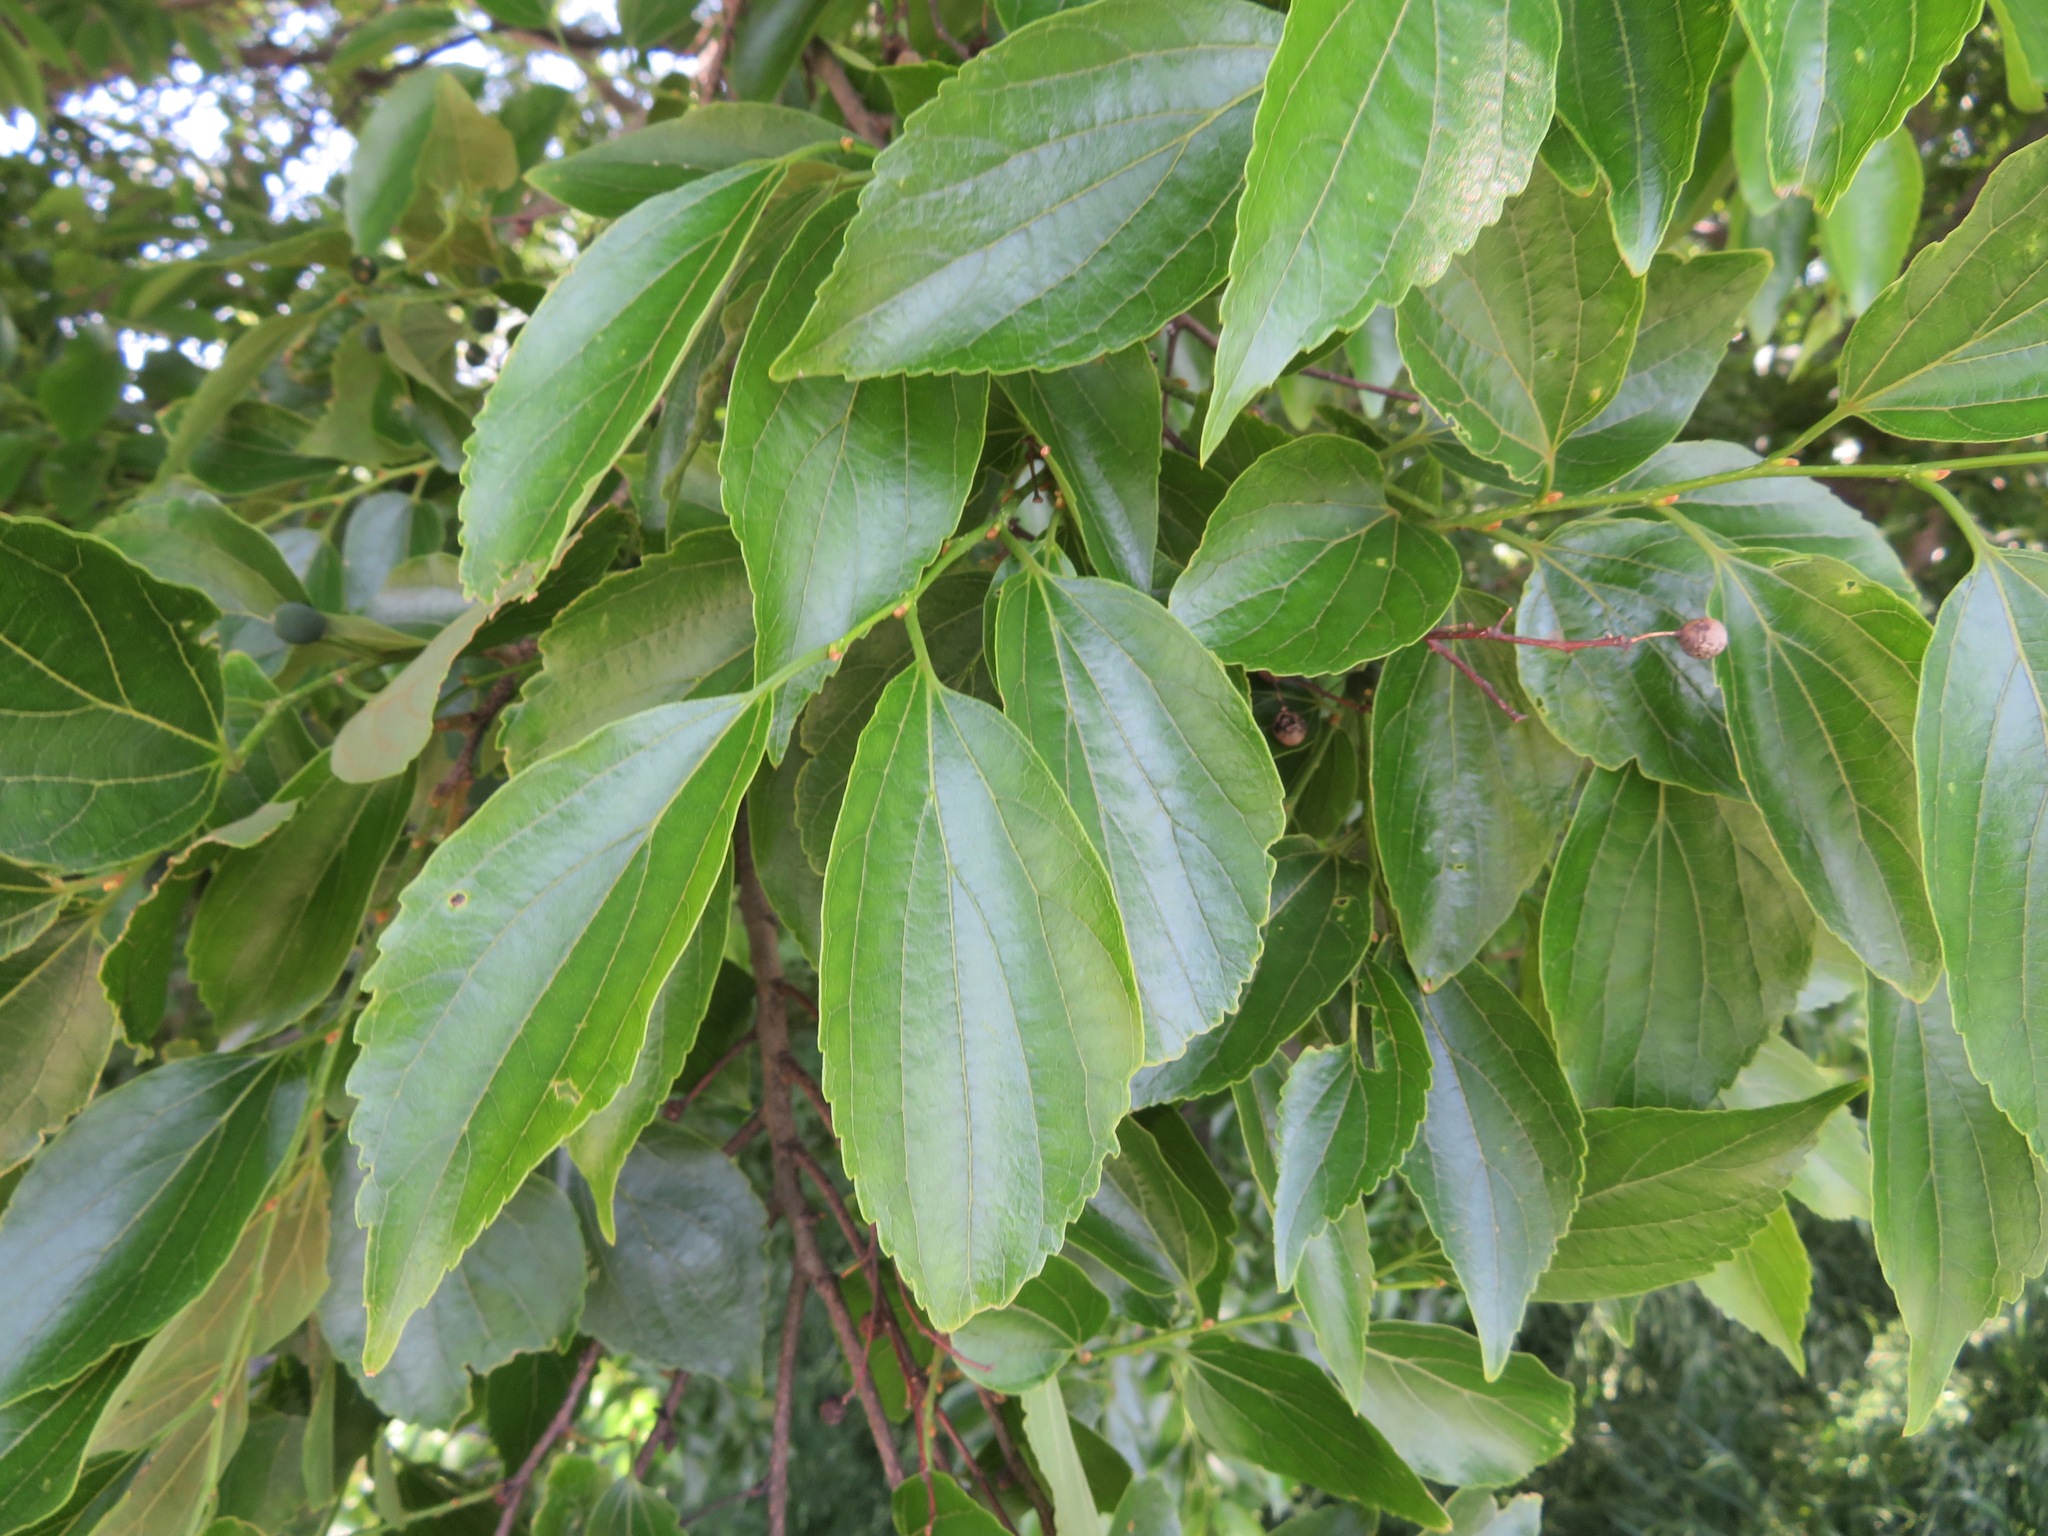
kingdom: Plantae
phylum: Tracheophyta
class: Magnoliopsida
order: Rosales
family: Cannabaceae
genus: Celtis
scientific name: Celtis sinensis
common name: Chinese hackberry
